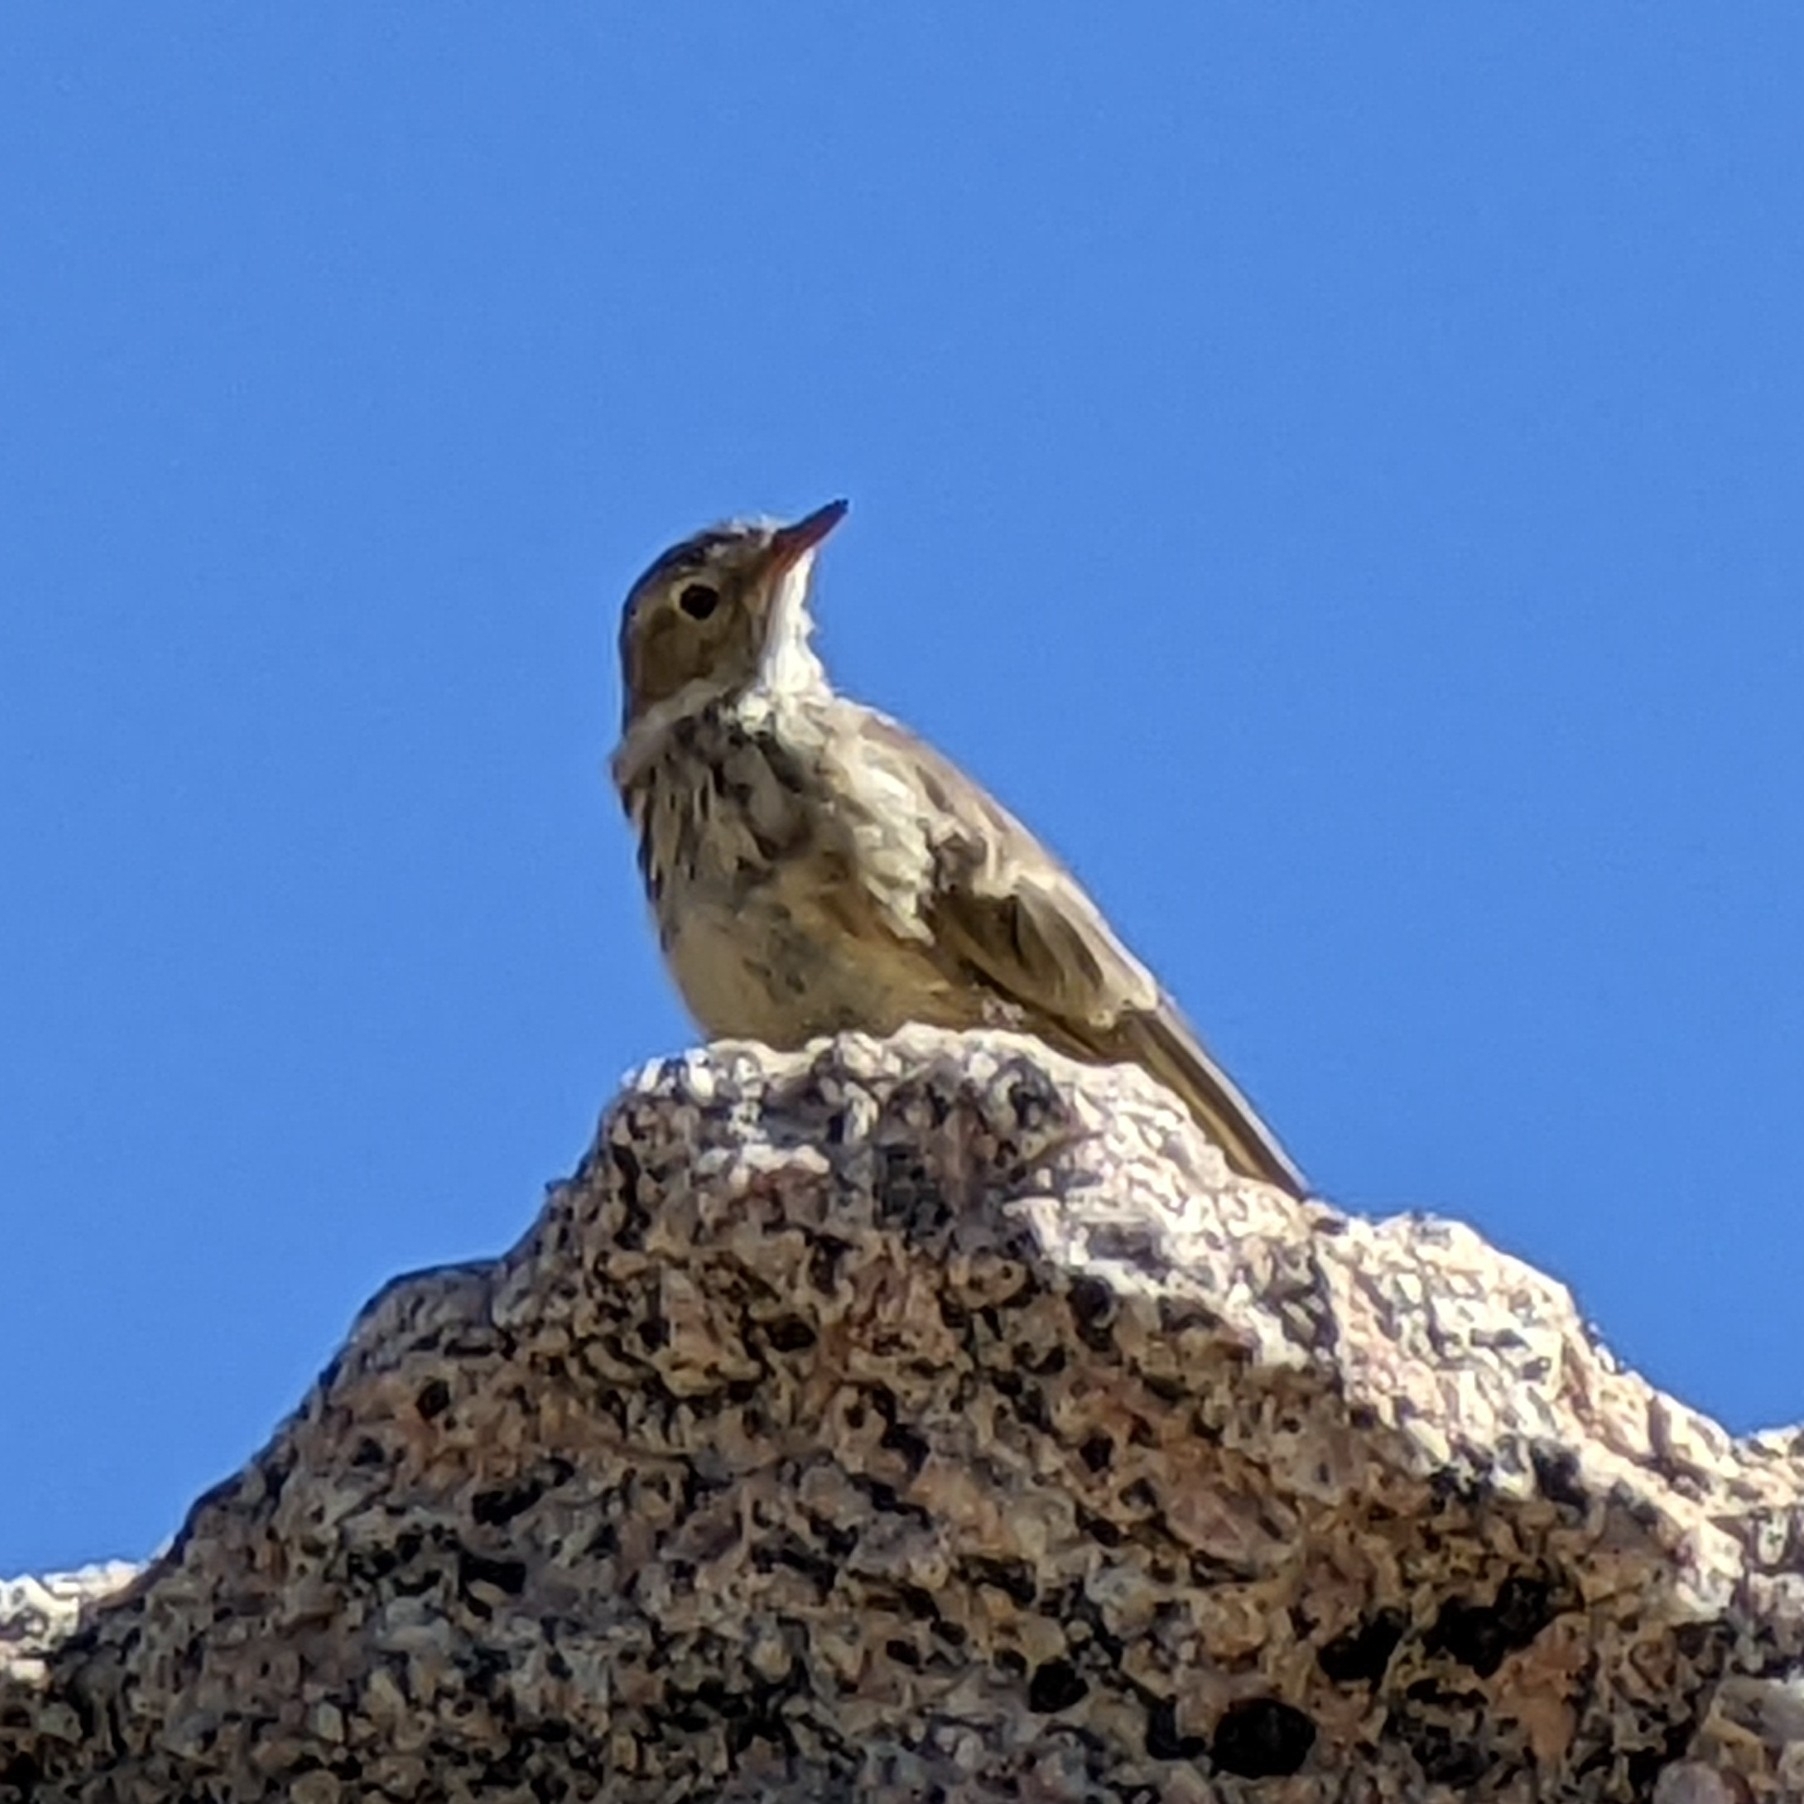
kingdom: Animalia
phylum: Chordata
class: Aves
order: Passeriformes
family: Motacillidae
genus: Anthus
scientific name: Anthus rubescens
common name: Buff-bellied pipit
